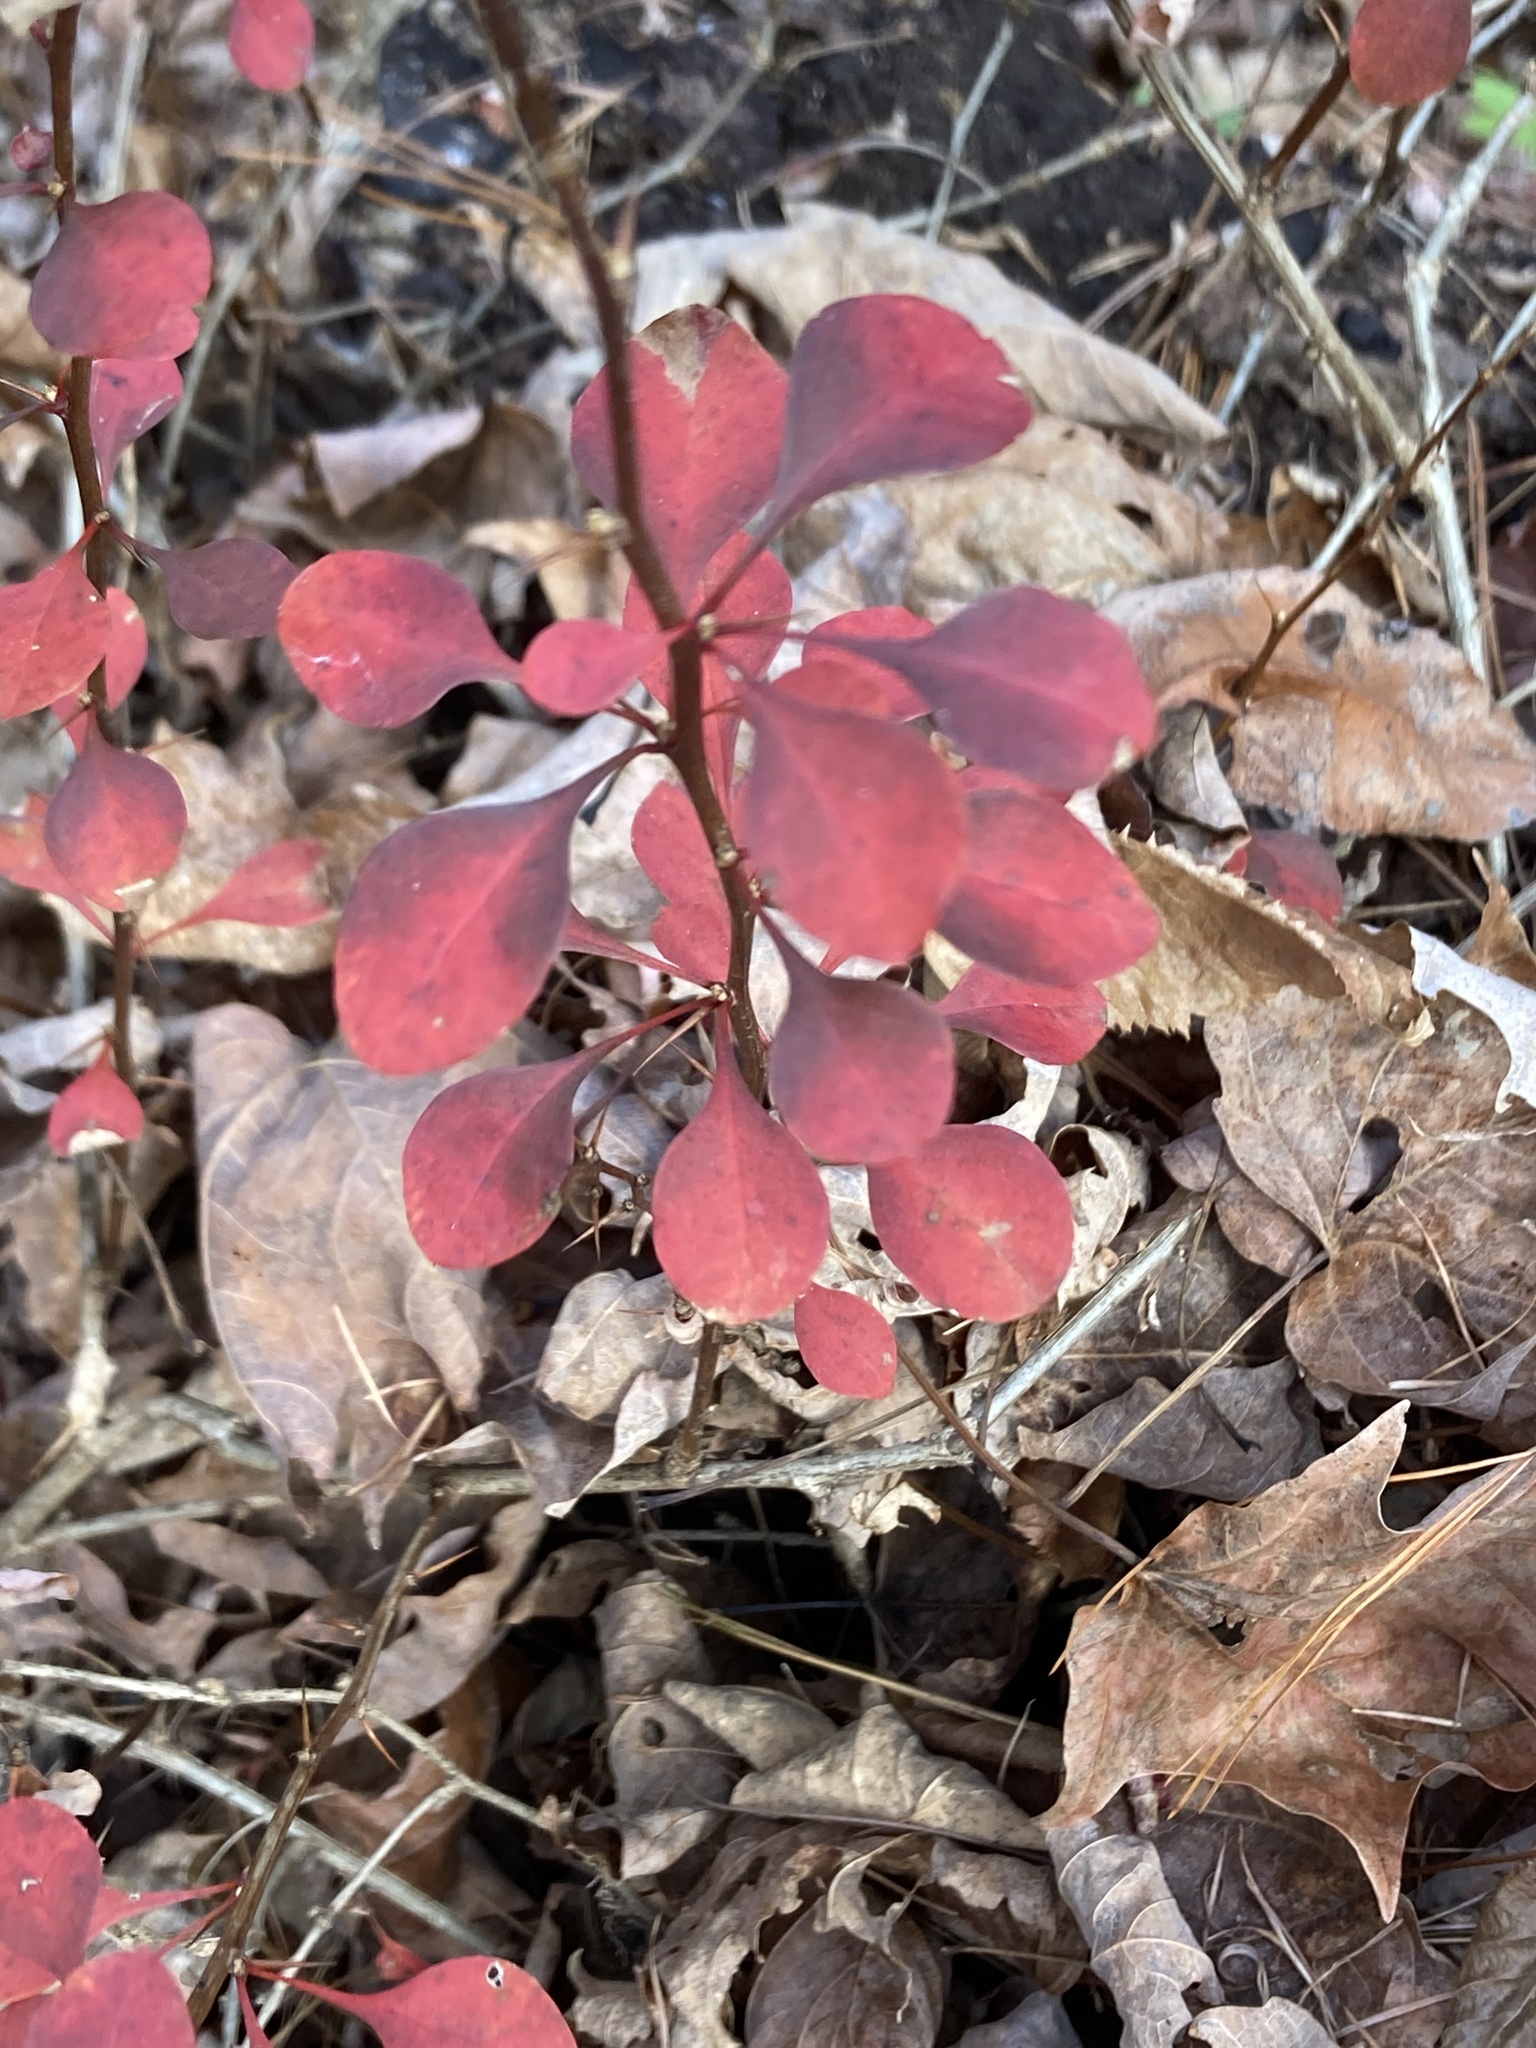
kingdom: Plantae
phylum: Tracheophyta
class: Magnoliopsida
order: Ranunculales
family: Berberidaceae
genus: Berberis
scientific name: Berberis thunbergii
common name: Japanese barberry
